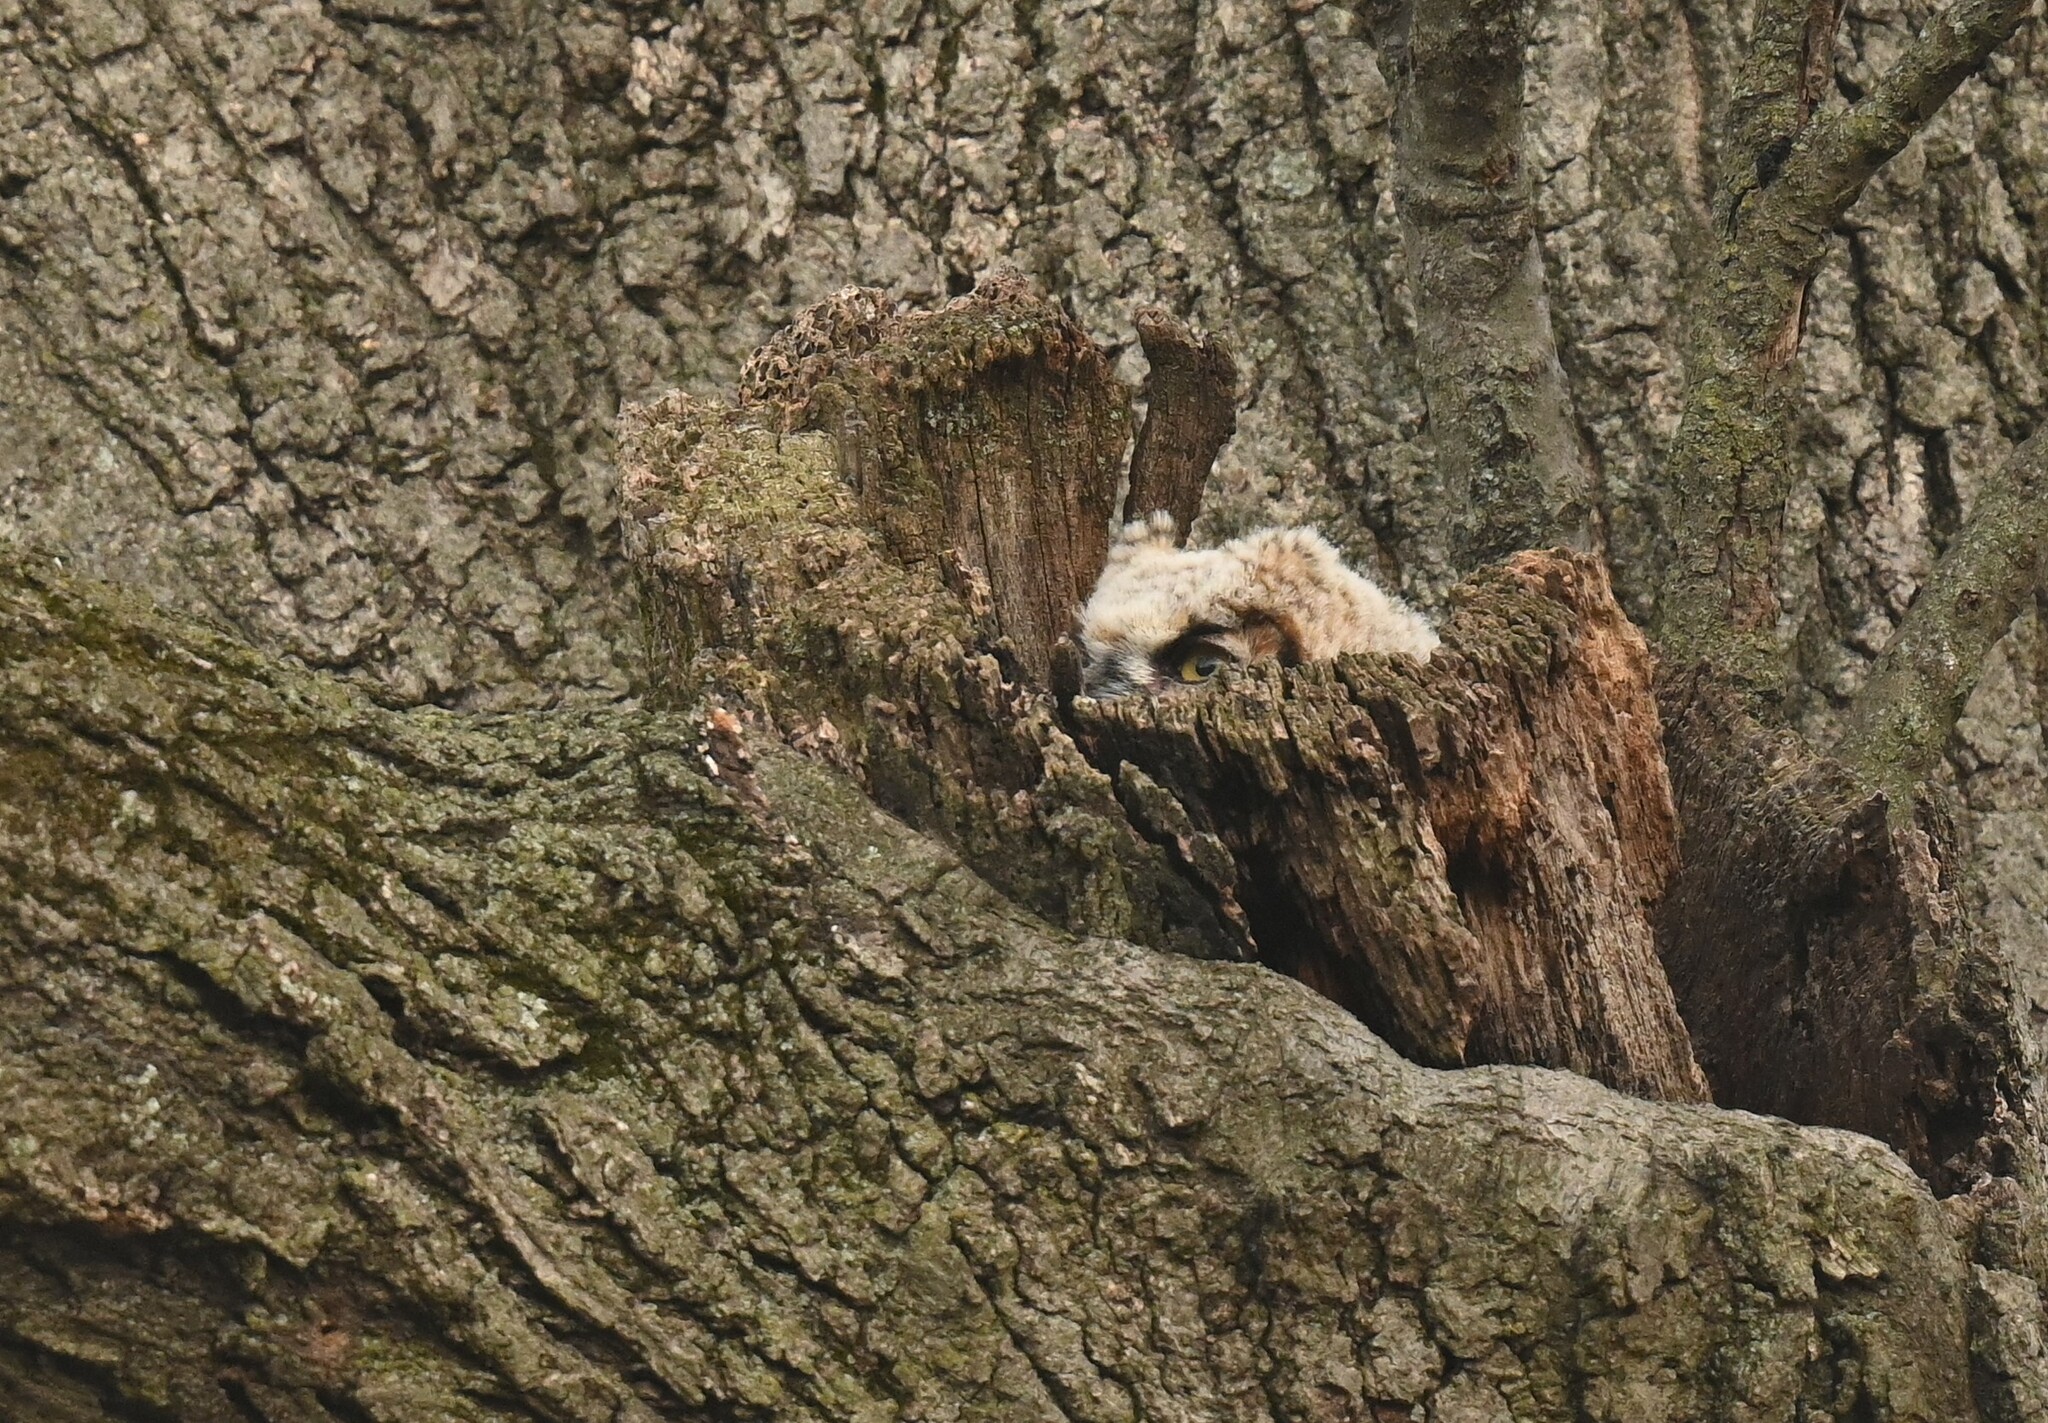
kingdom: Animalia
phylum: Chordata
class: Aves
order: Strigiformes
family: Strigidae
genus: Bubo
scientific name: Bubo virginianus
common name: Great horned owl
